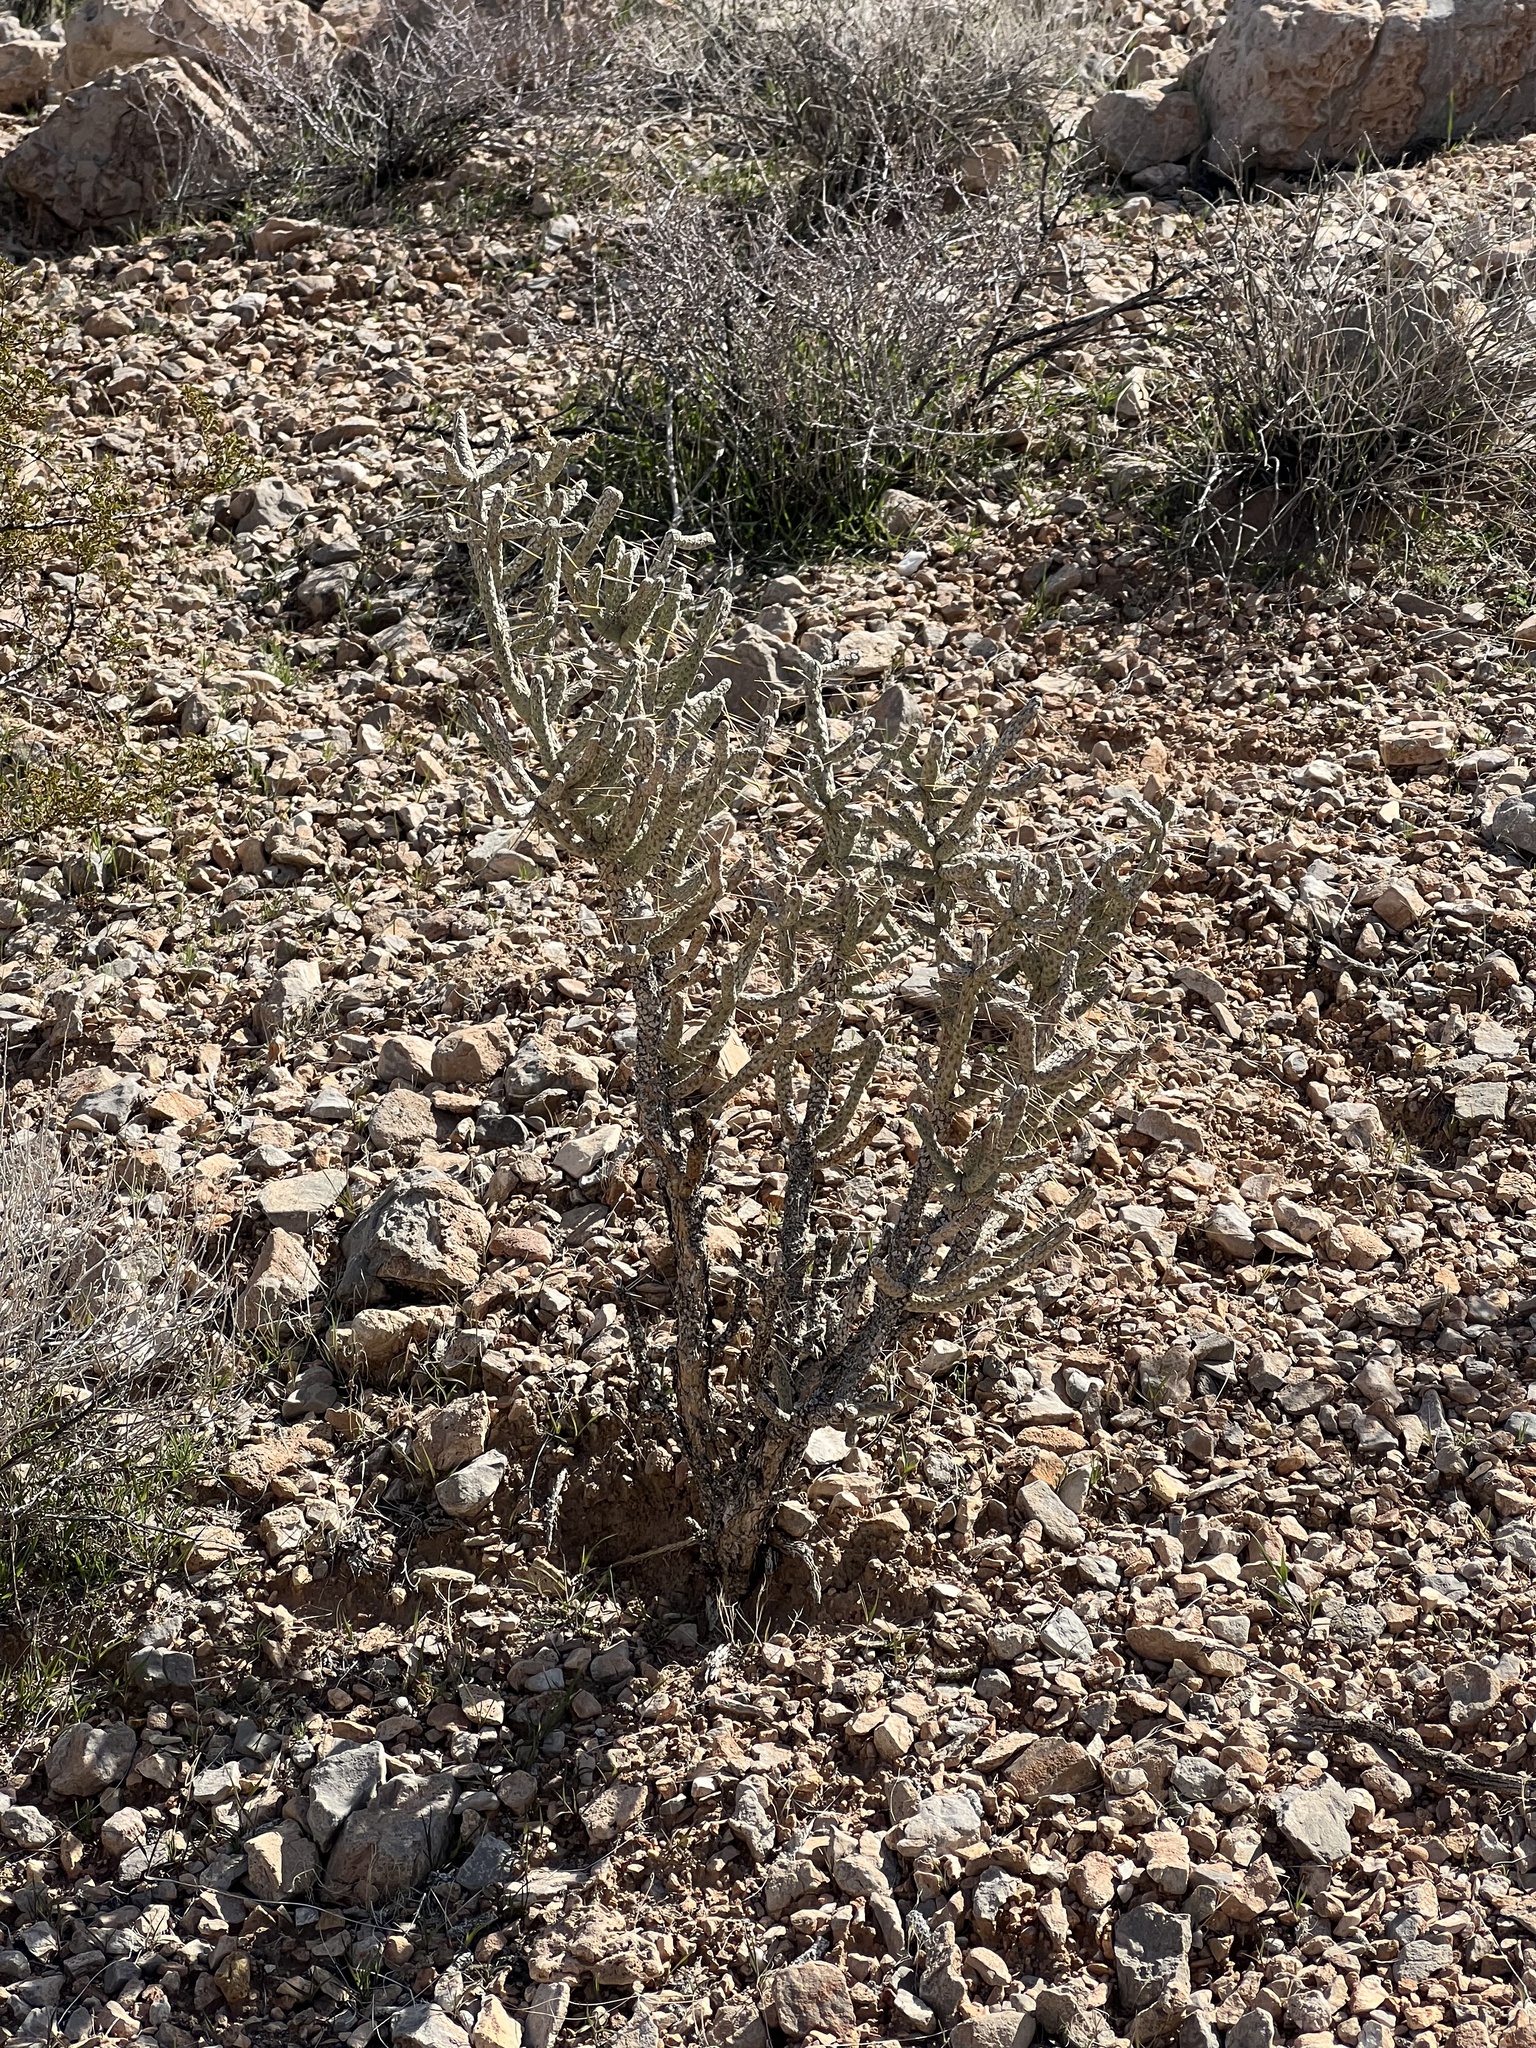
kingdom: Plantae
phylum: Tracheophyta
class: Magnoliopsida
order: Caryophyllales
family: Cactaceae
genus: Cylindropuntia
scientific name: Cylindropuntia ramosissima
